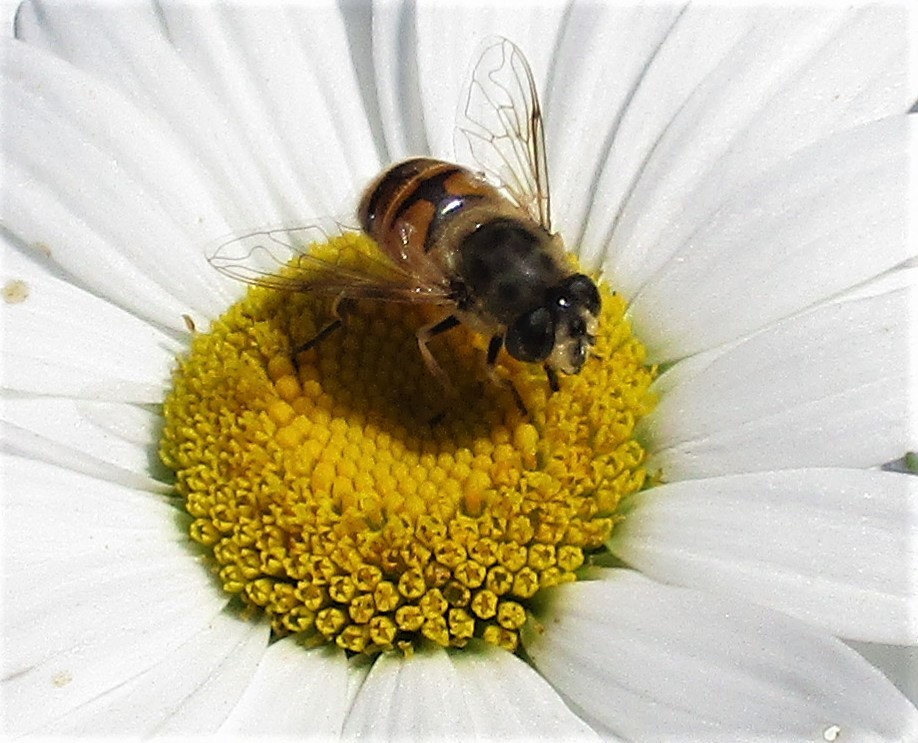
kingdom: Animalia
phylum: Arthropoda
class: Insecta
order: Diptera
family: Syrphidae
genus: Eristalis
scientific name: Eristalis tenax
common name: Drone fly
